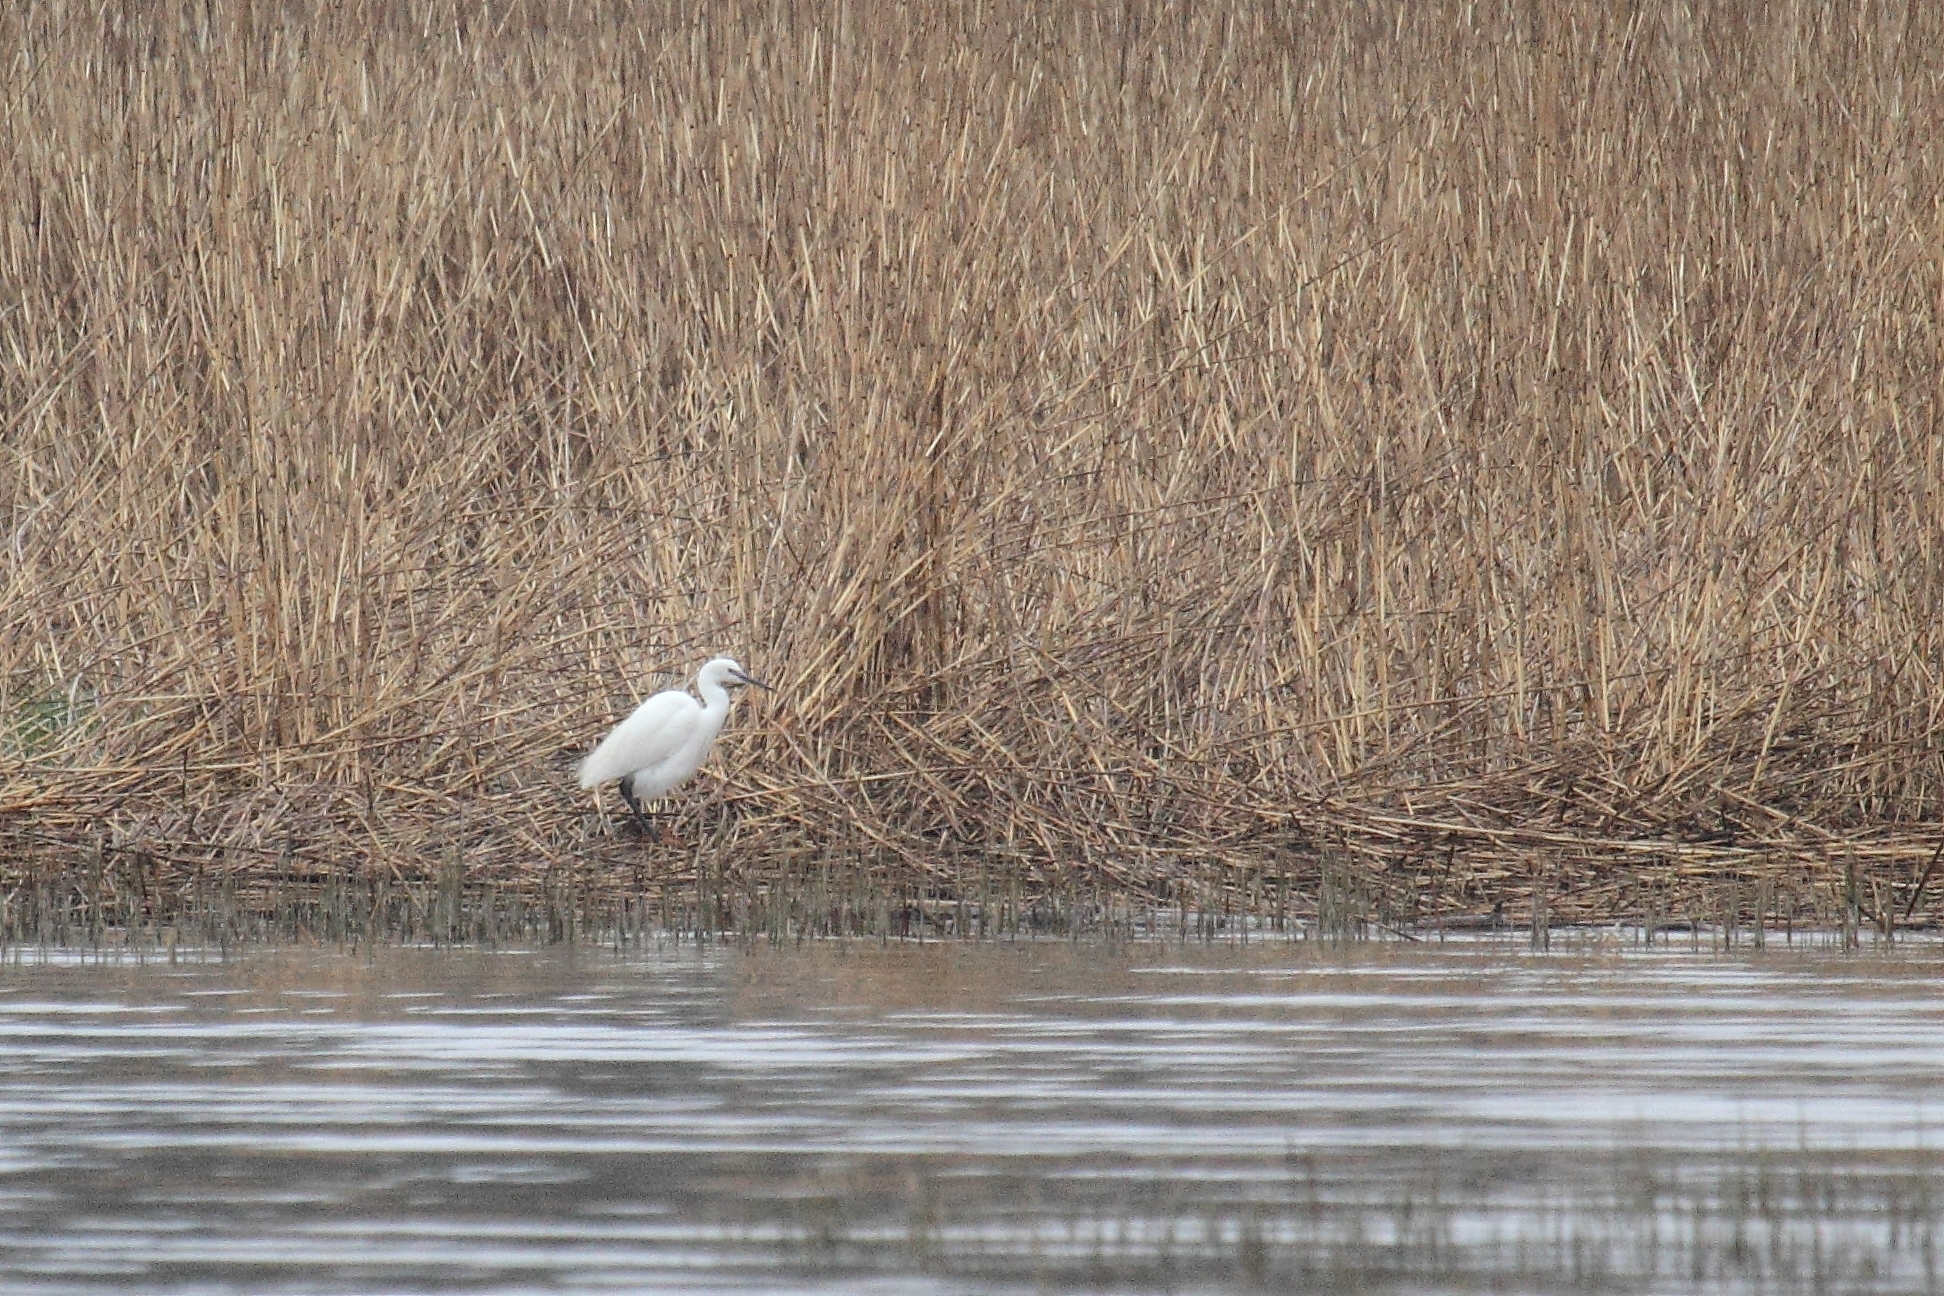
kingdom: Animalia
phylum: Chordata
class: Aves
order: Pelecaniformes
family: Ardeidae
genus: Egretta
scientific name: Egretta garzetta
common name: Little egret
